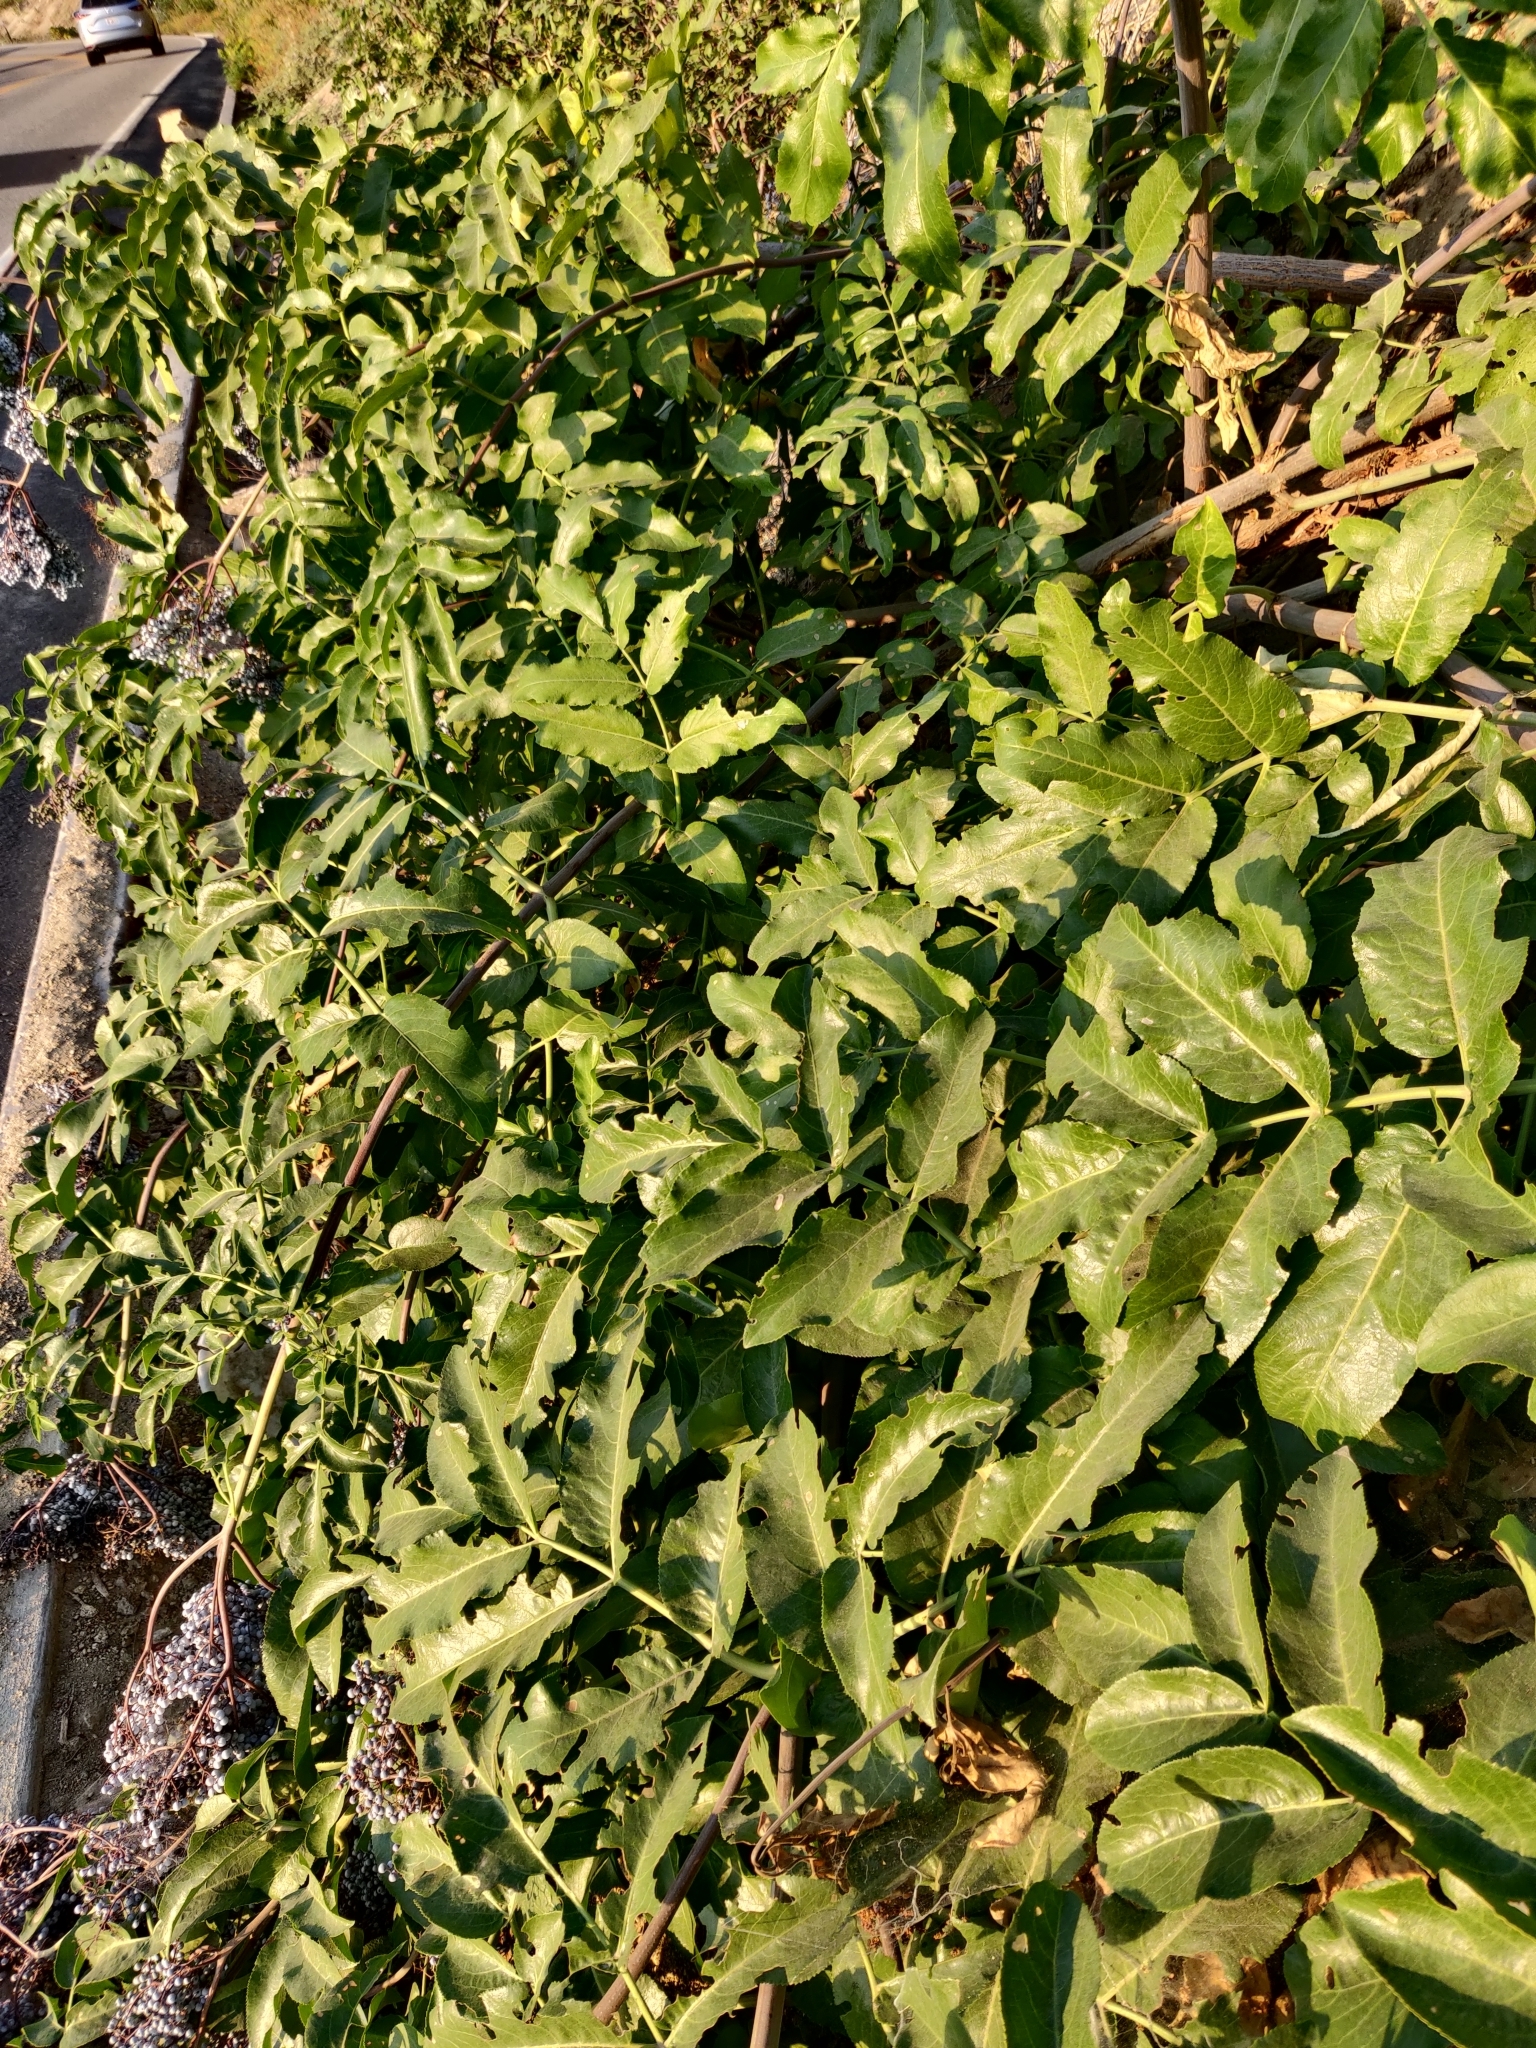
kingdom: Plantae
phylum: Tracheophyta
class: Magnoliopsida
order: Dipsacales
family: Viburnaceae
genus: Sambucus
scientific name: Sambucus cerulea
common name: Blue elder
